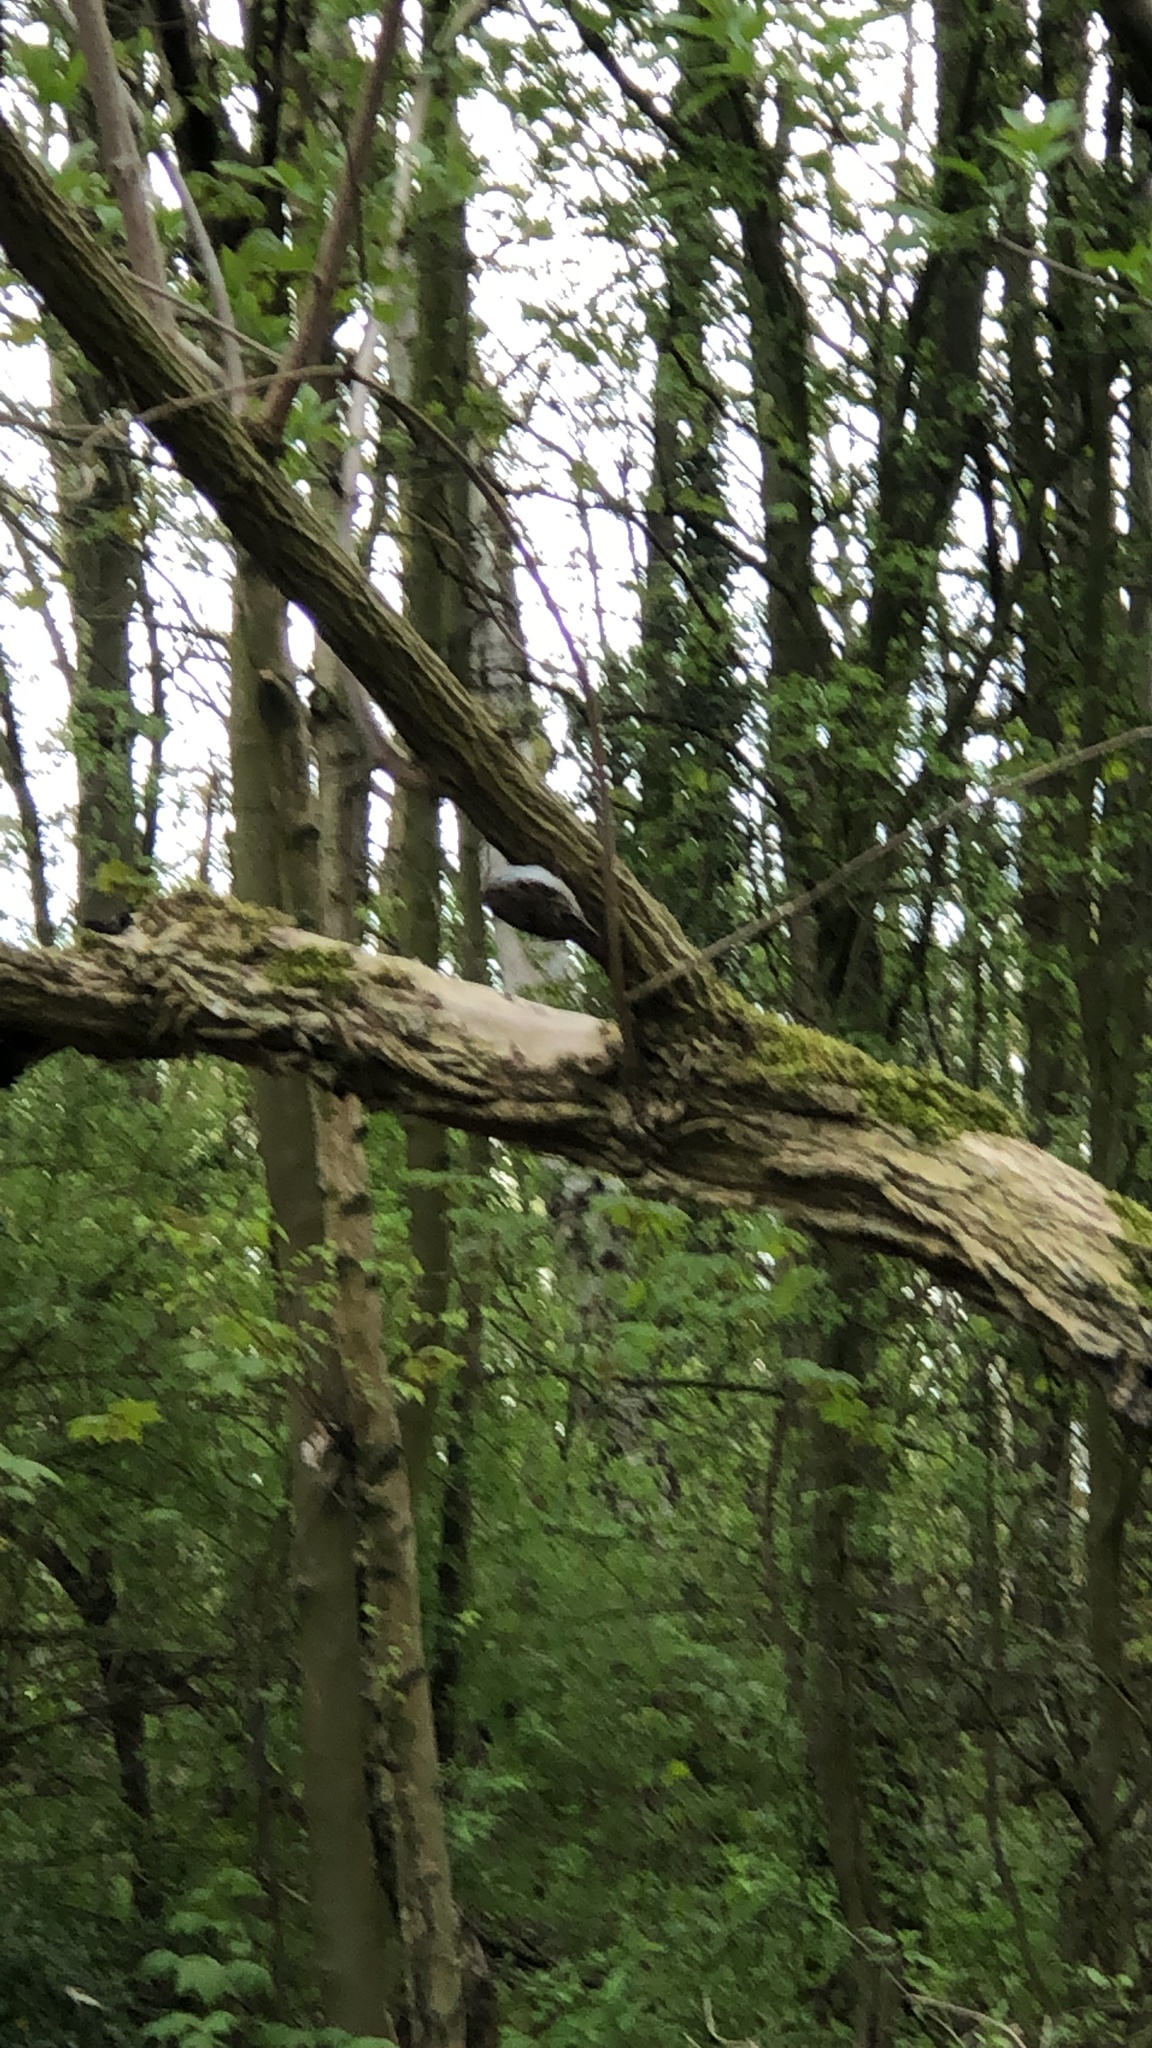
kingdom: Animalia
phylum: Chordata
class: Aves
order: Passeriformes
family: Certhiidae
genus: Certhia
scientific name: Certhia familiaris
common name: Eurasian treecreeper
